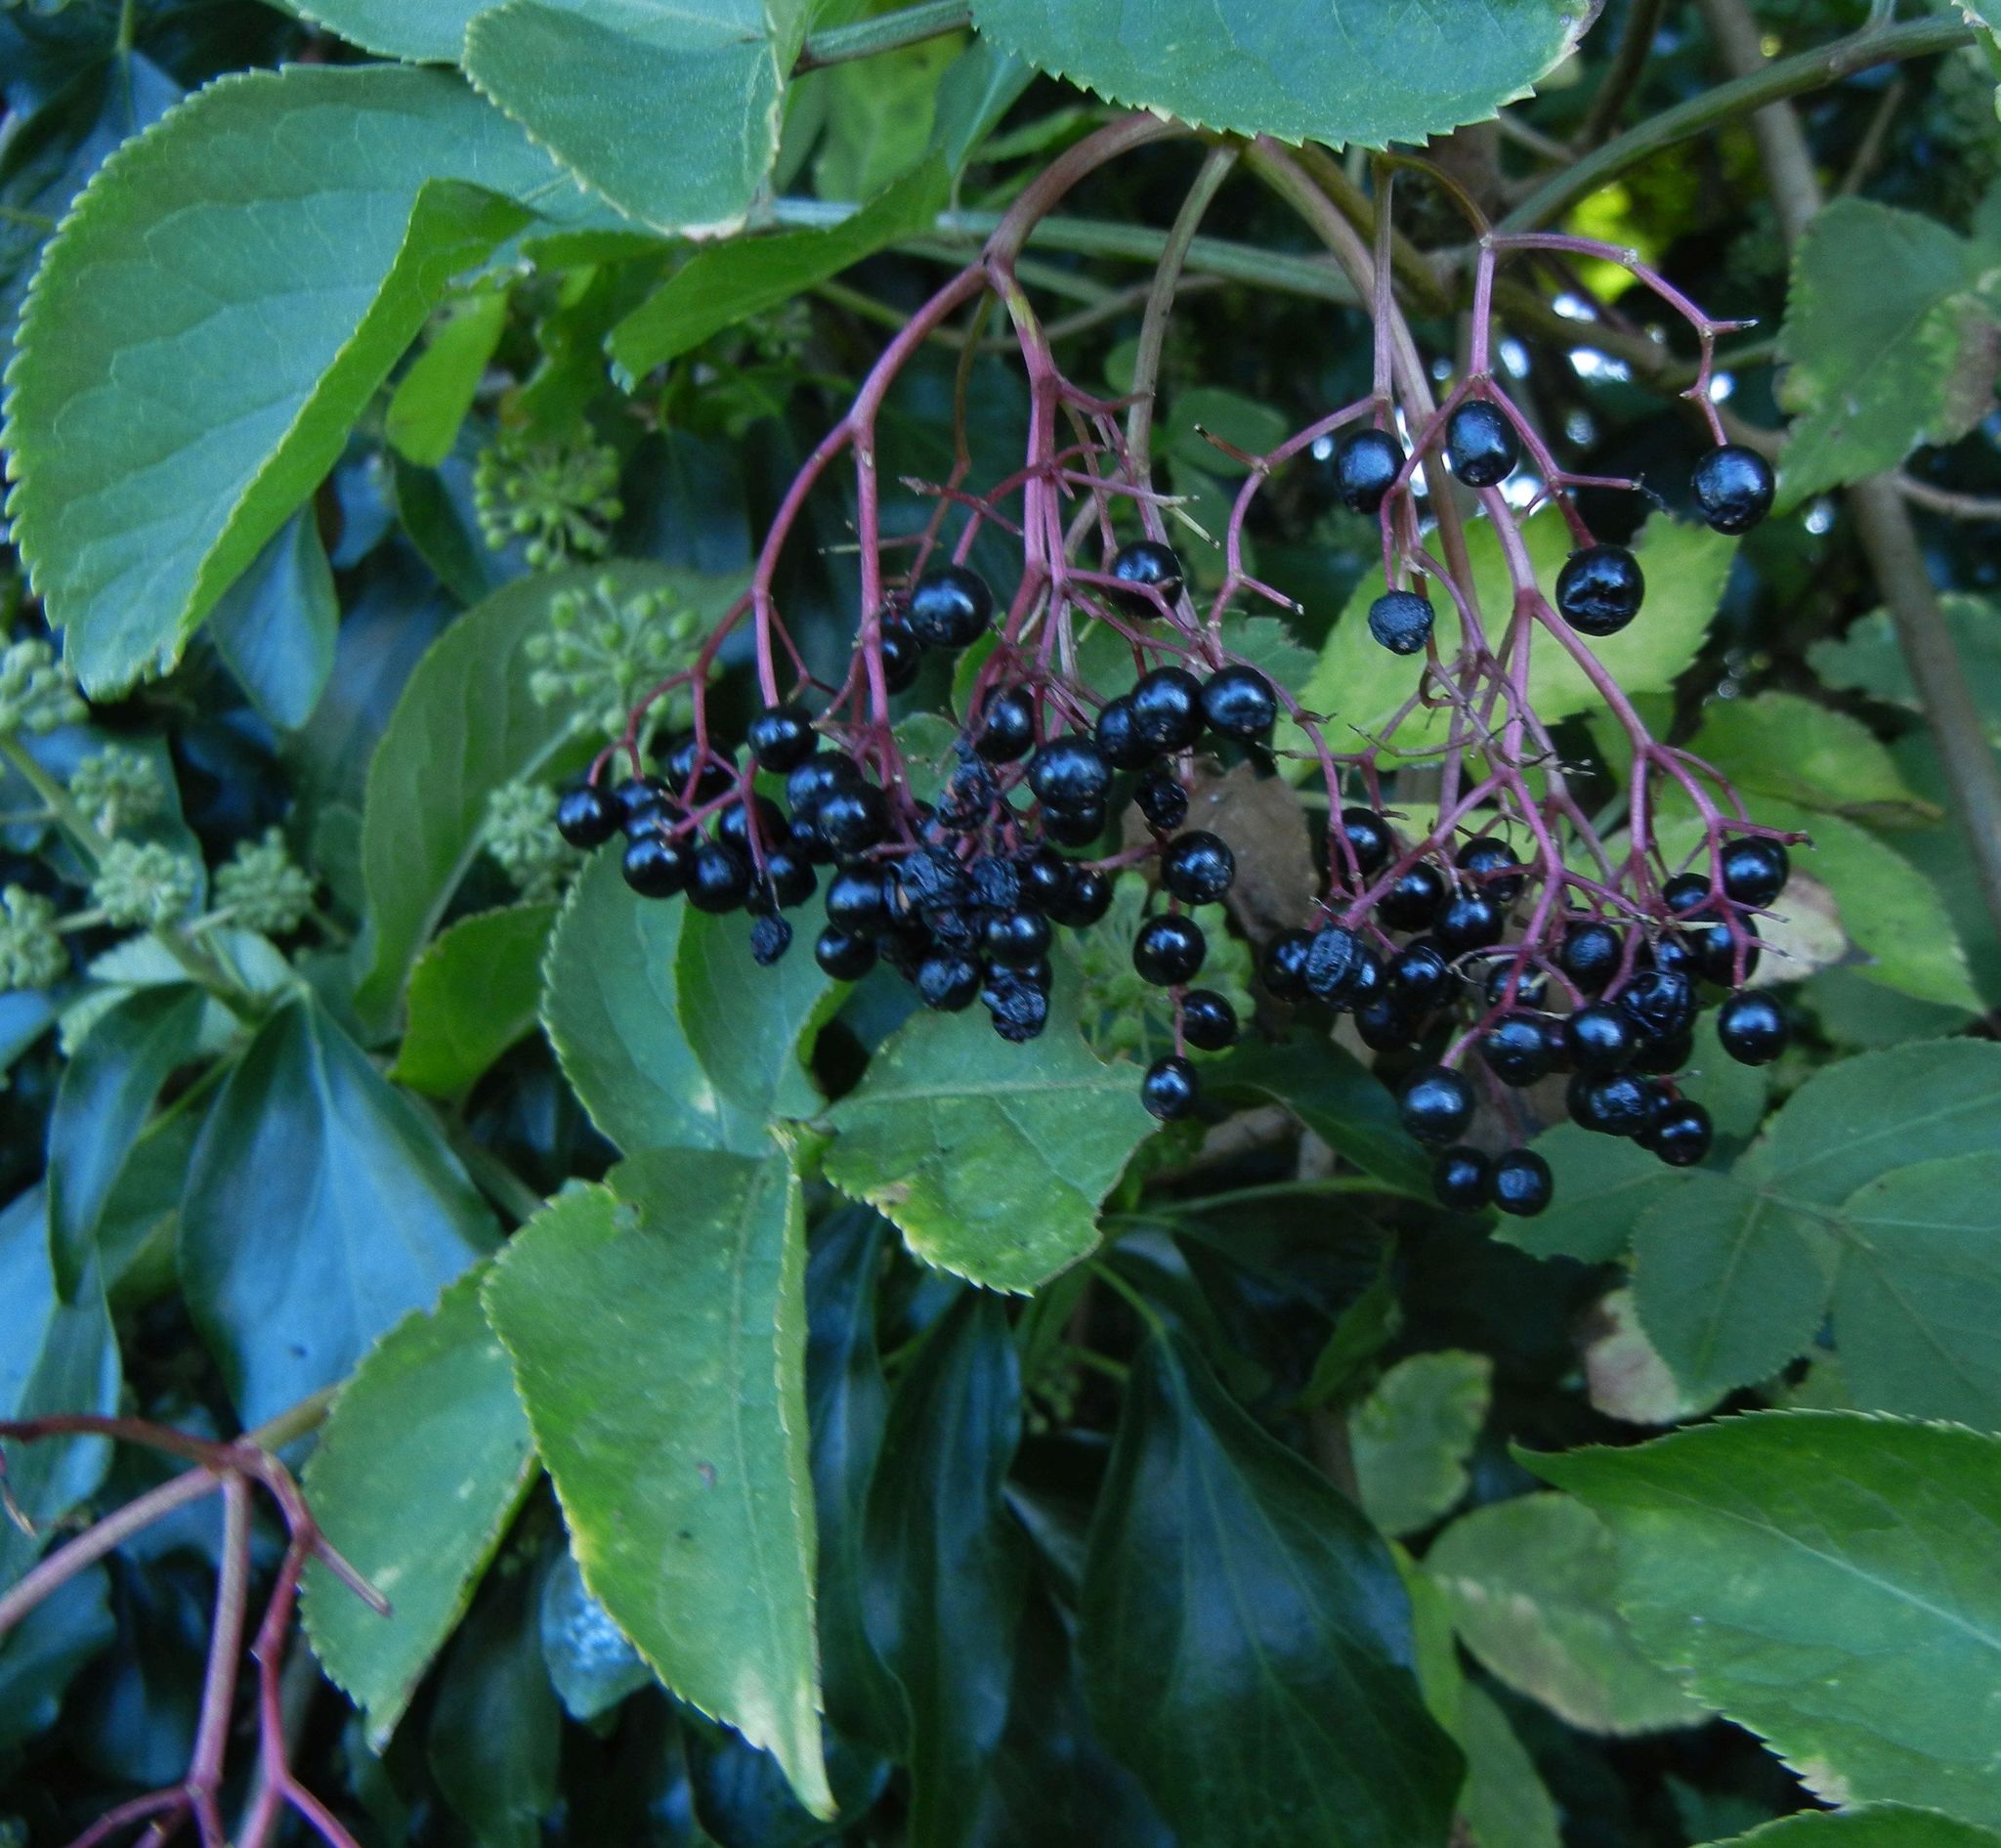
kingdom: Plantae
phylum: Tracheophyta
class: Magnoliopsida
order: Dipsacales
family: Viburnaceae
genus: Sambucus
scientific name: Sambucus nigra
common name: Elder
